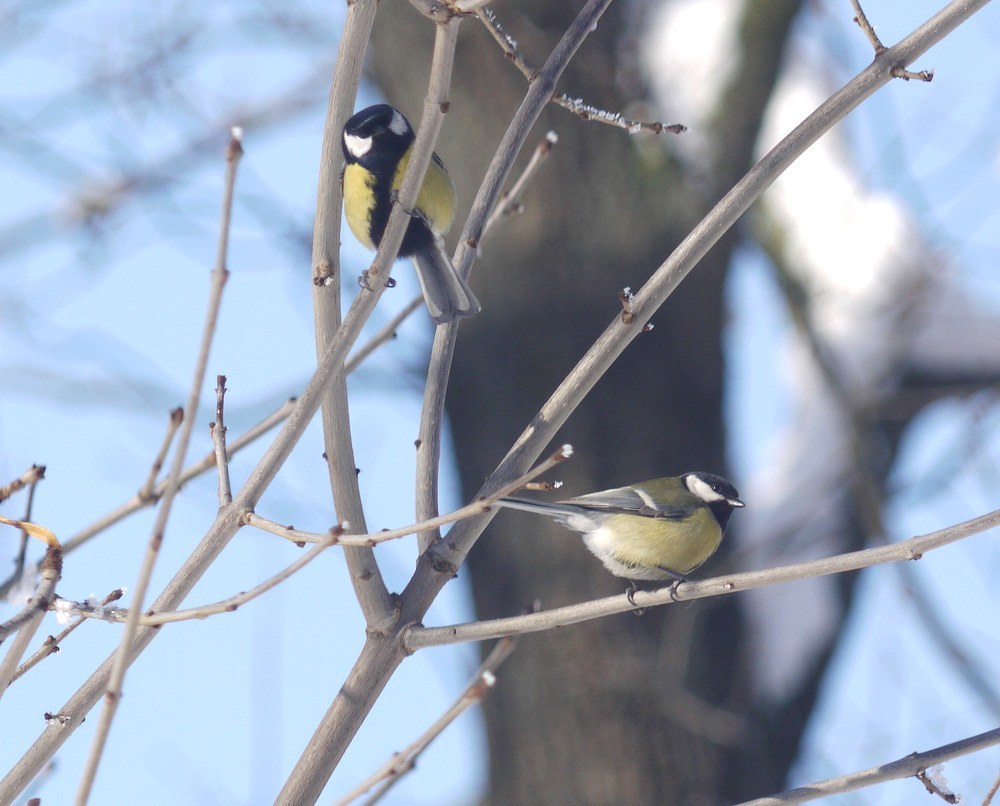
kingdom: Animalia
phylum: Chordata
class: Aves
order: Passeriformes
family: Paridae
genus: Parus
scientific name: Parus major
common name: Great tit
